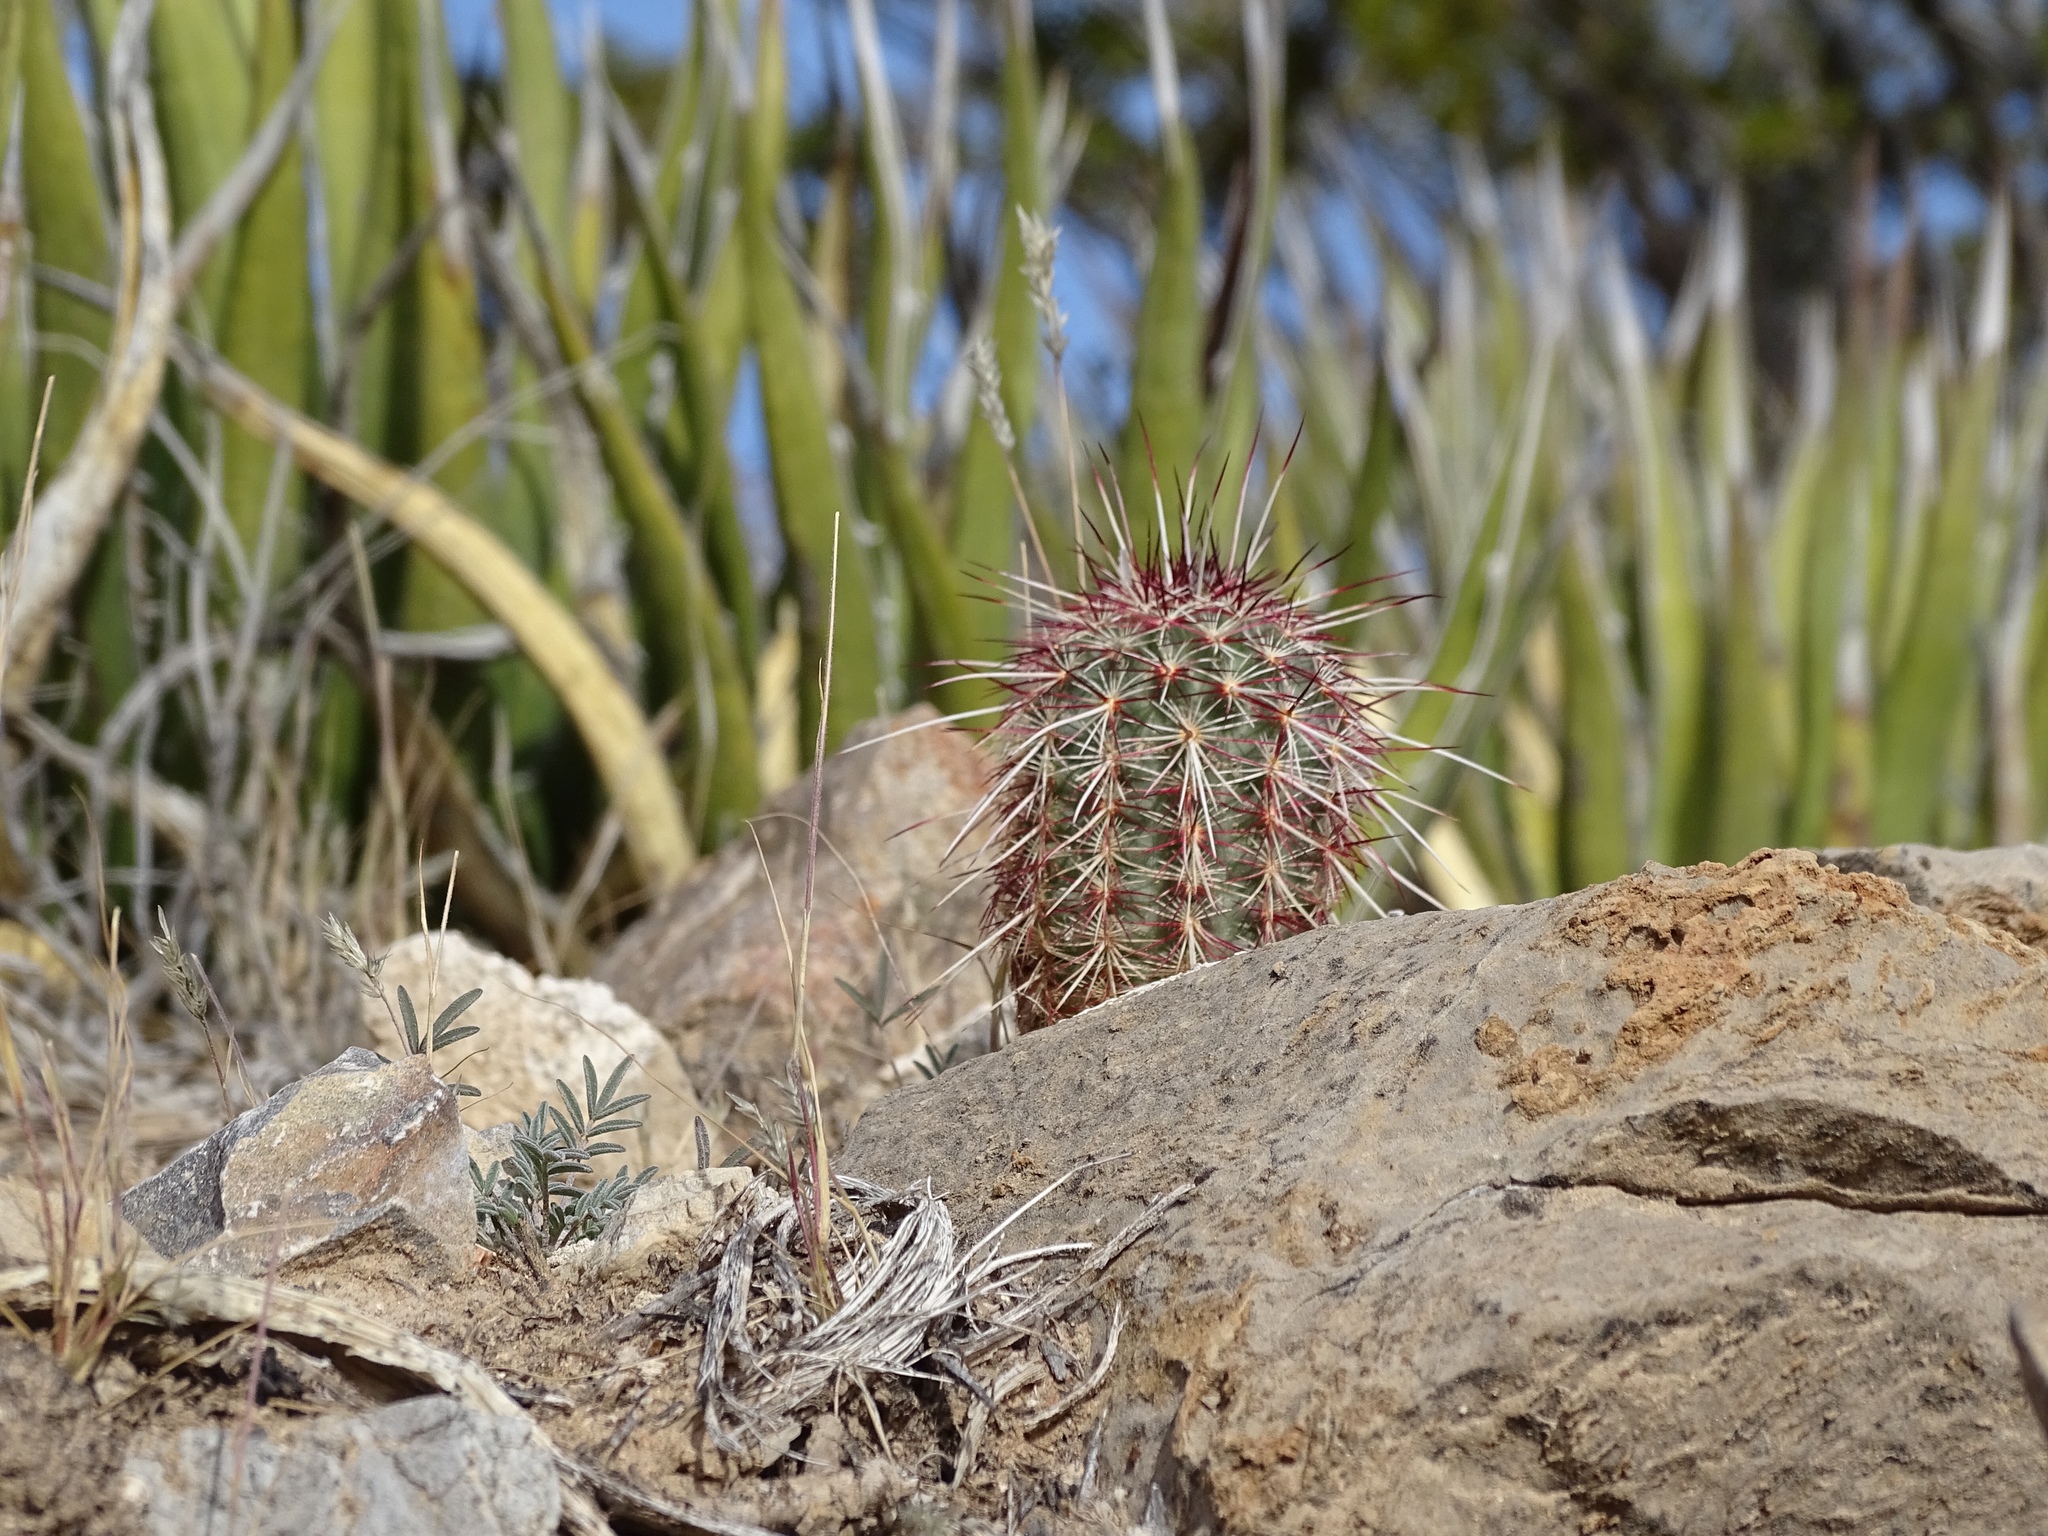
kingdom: Plantae
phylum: Tracheophyta
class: Magnoliopsida
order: Caryophyllales
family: Cactaceae
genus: Echinocereus
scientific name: Echinocereus viridiflorus
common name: Nylon hedgehog cactus
